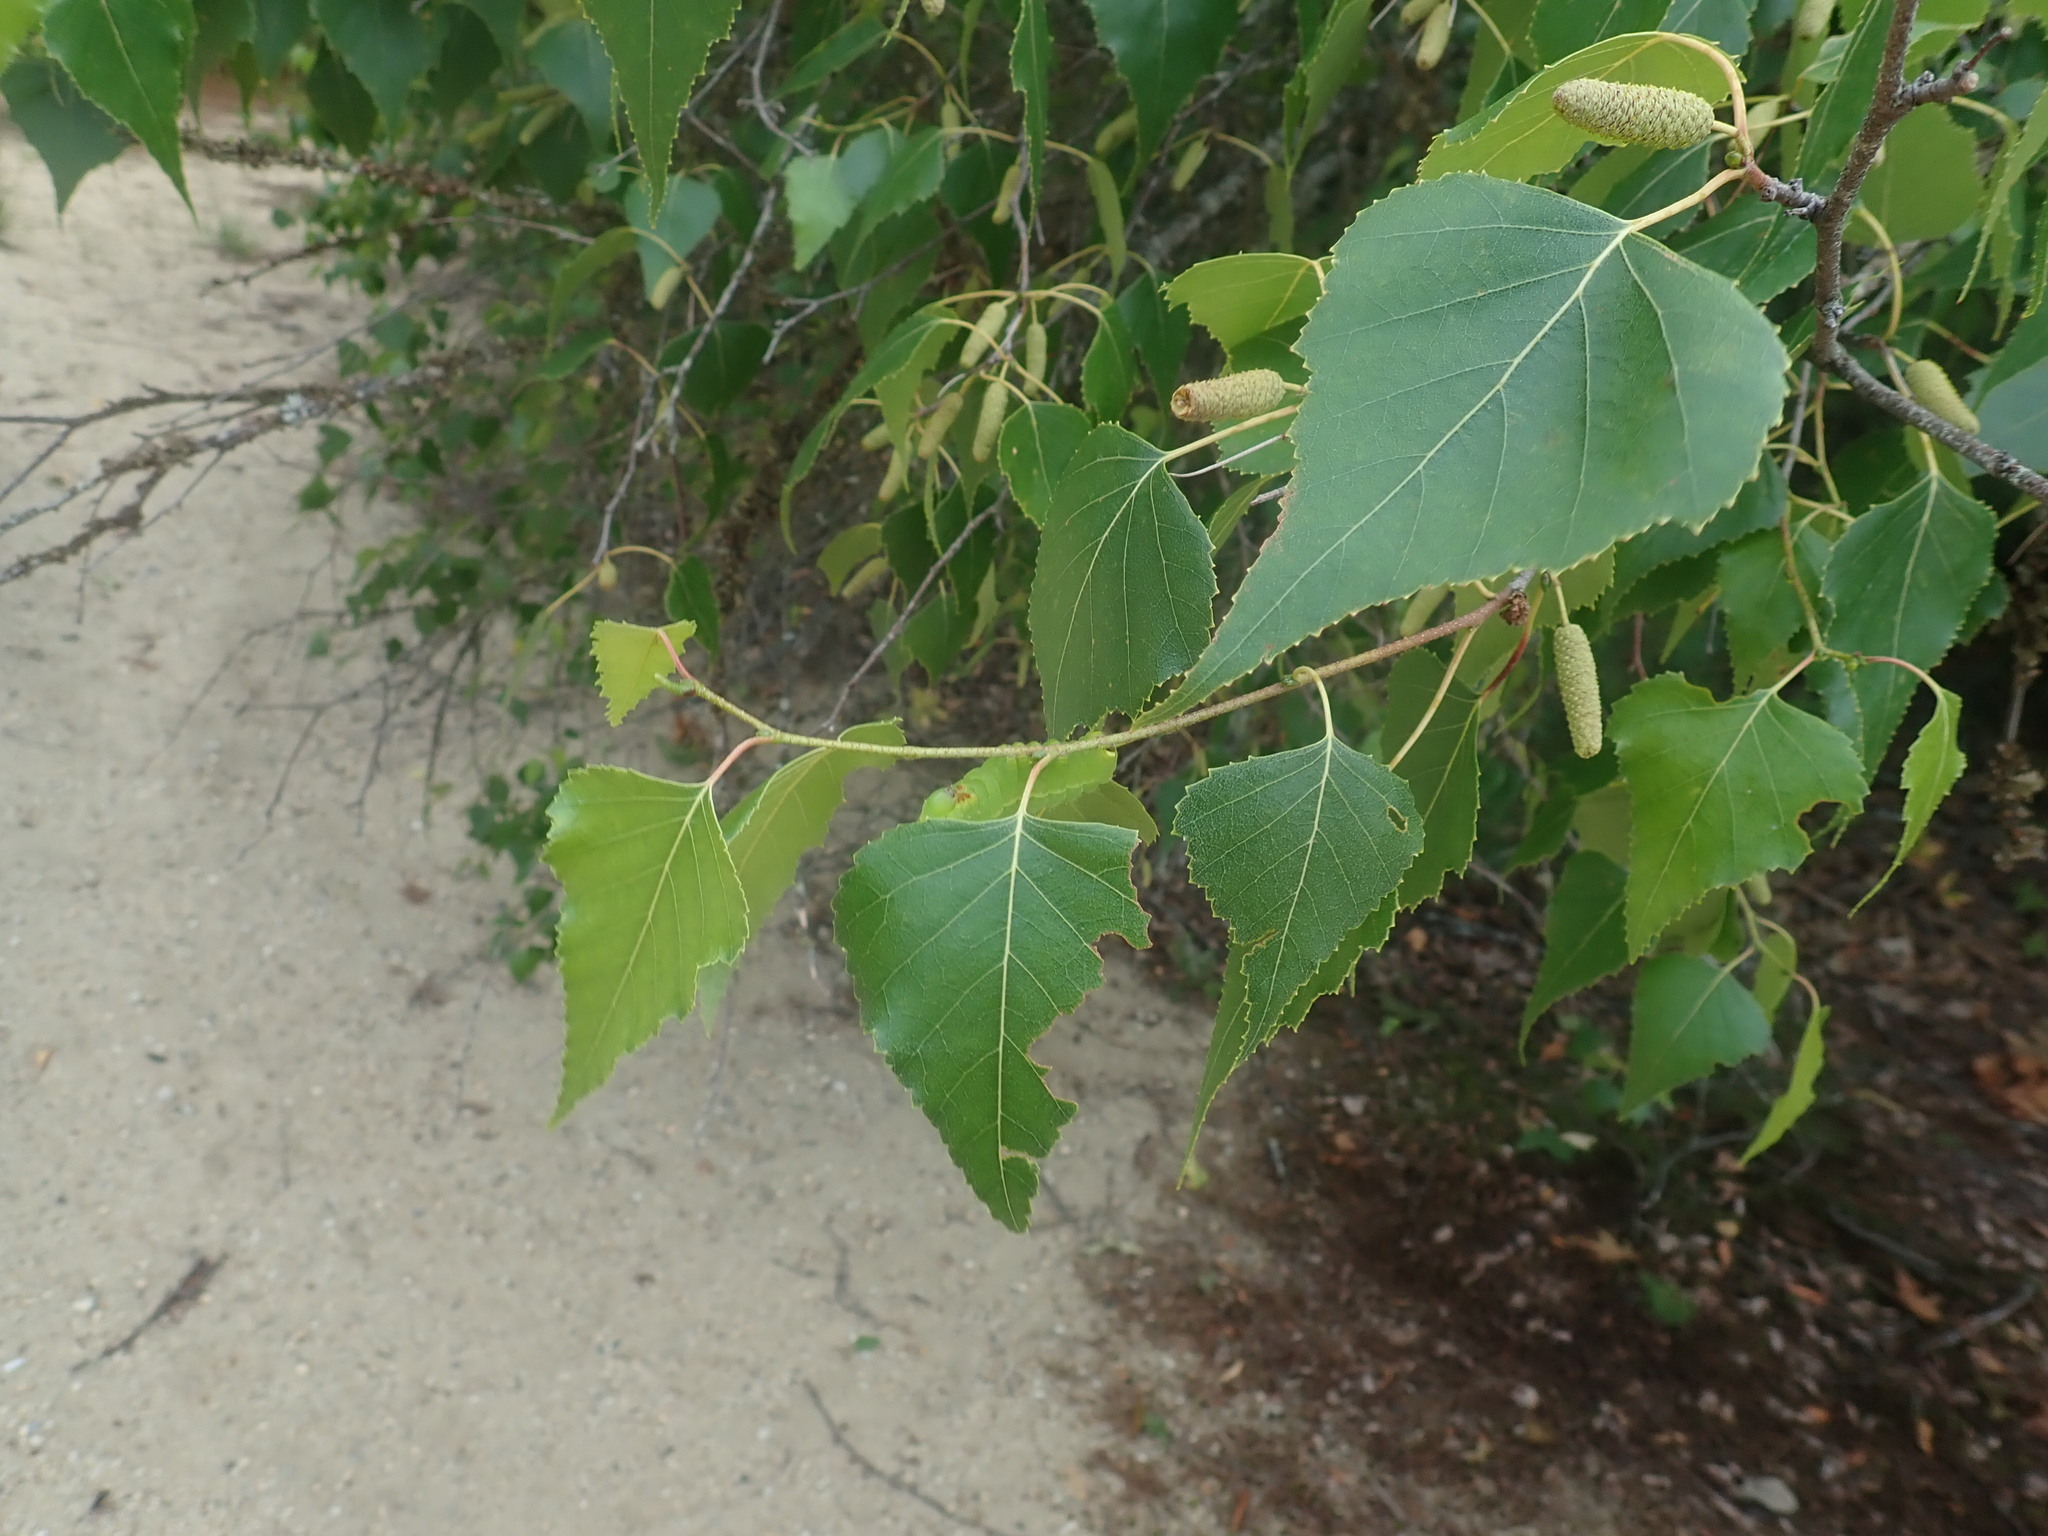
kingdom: Plantae
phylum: Tracheophyta
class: Magnoliopsida
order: Fagales
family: Betulaceae
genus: Betula
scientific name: Betula populifolia
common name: Fire birch
